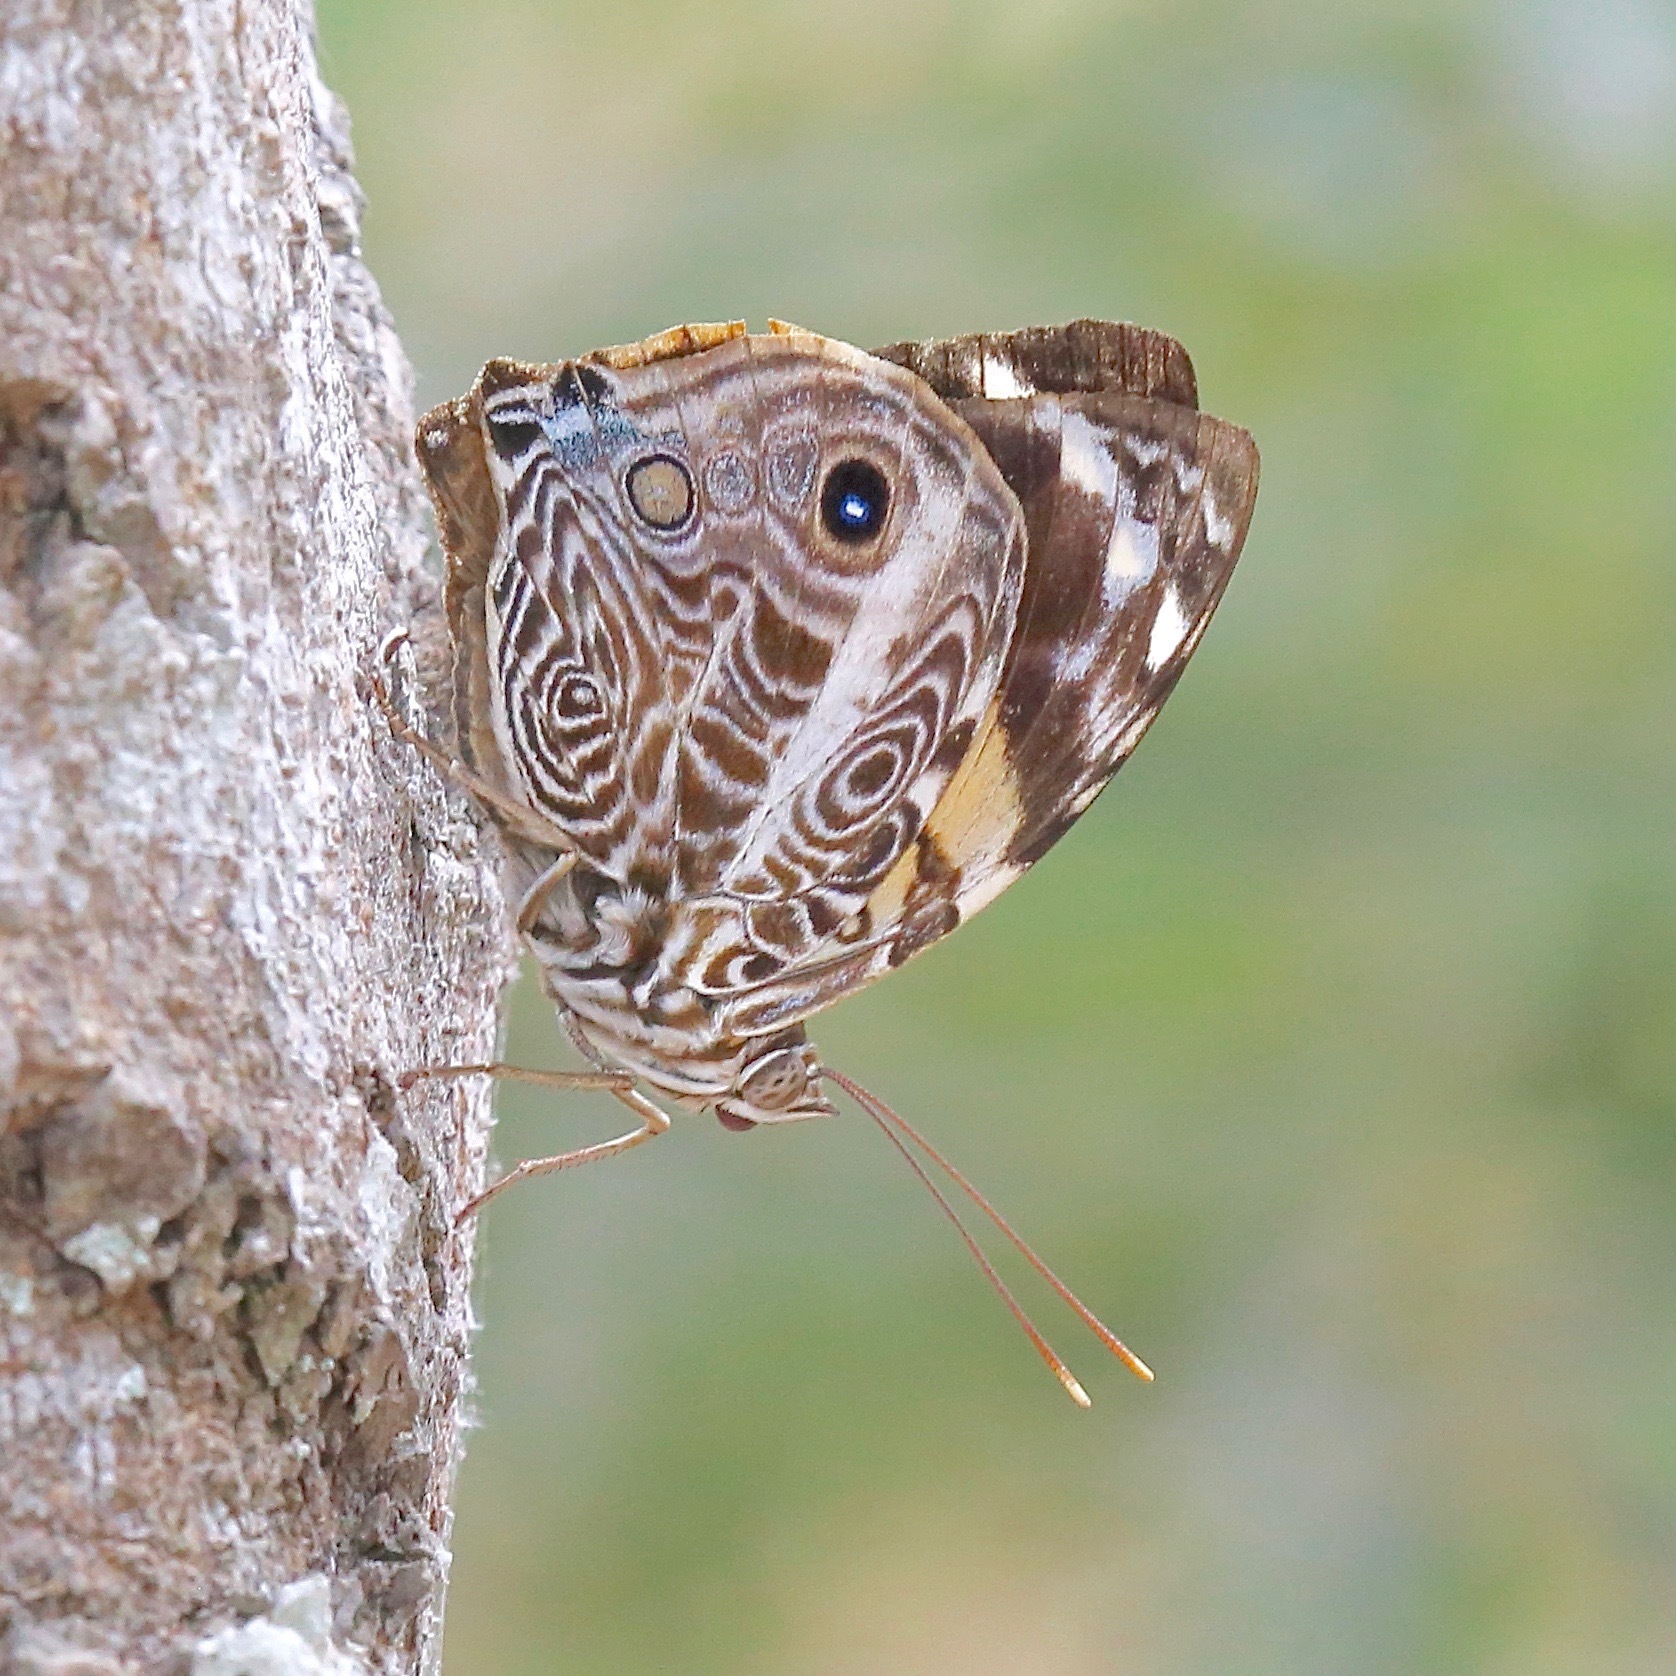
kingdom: Animalia
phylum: Arthropoda
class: Insecta
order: Lepidoptera
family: Nymphalidae
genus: Smyrna
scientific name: Smyrna blomfildia
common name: Blomfild's beauty
